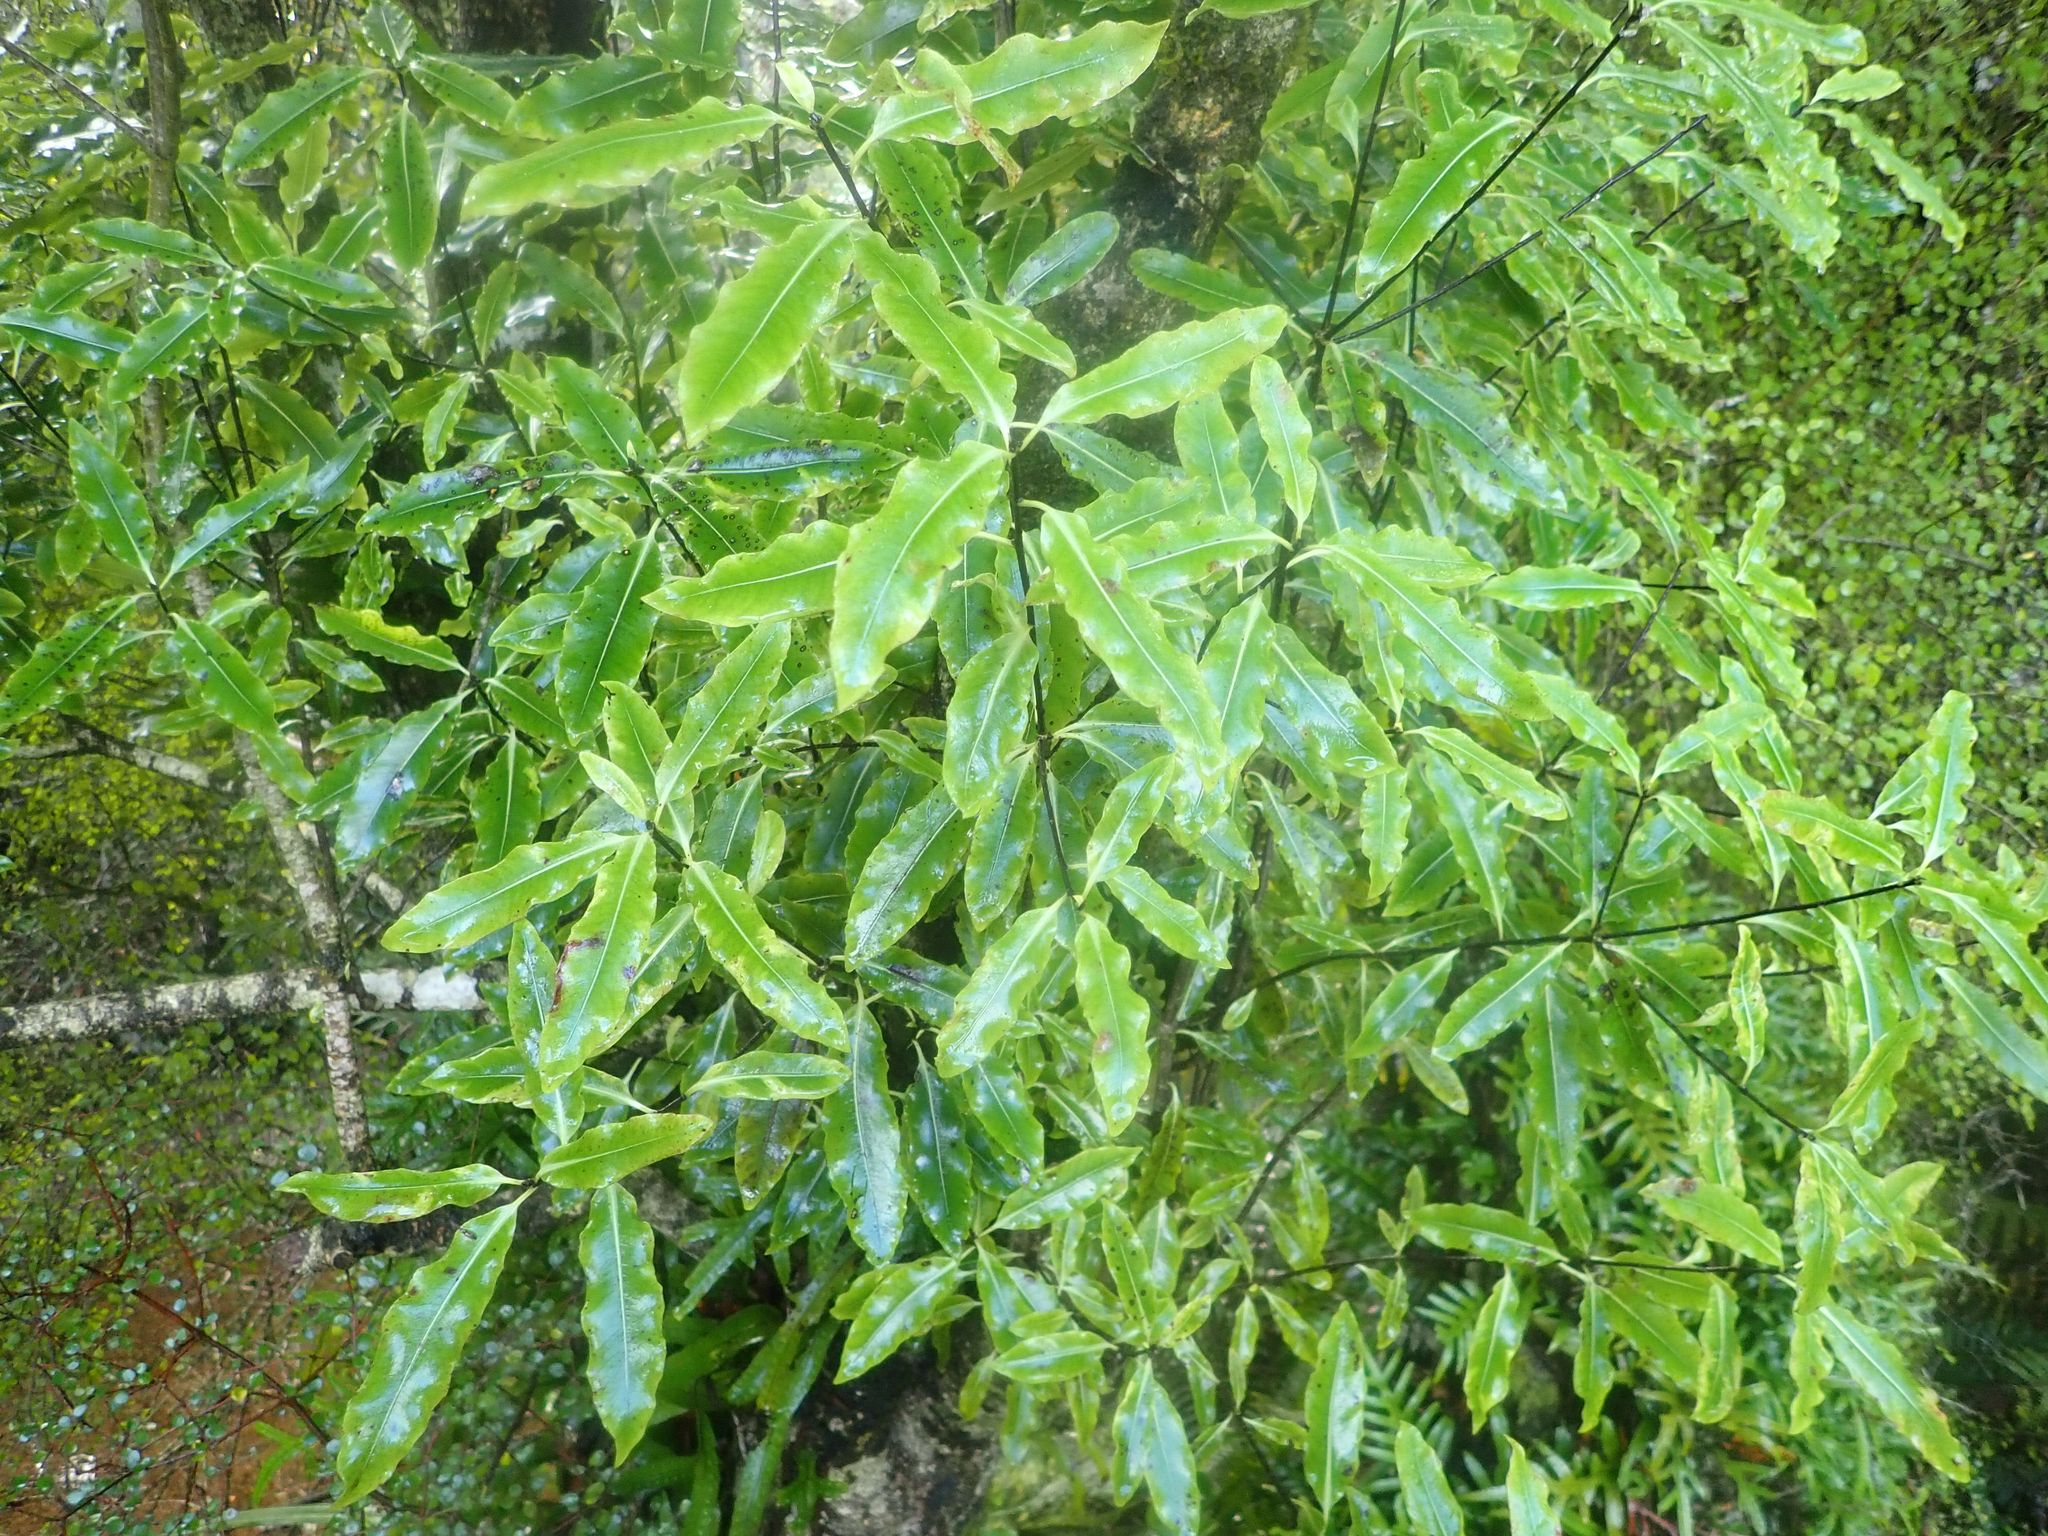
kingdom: Plantae
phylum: Tracheophyta
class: Magnoliopsida
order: Apiales
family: Pittosporaceae
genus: Pittosporum
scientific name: Pittosporum eugenioides
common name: Lemonwood
